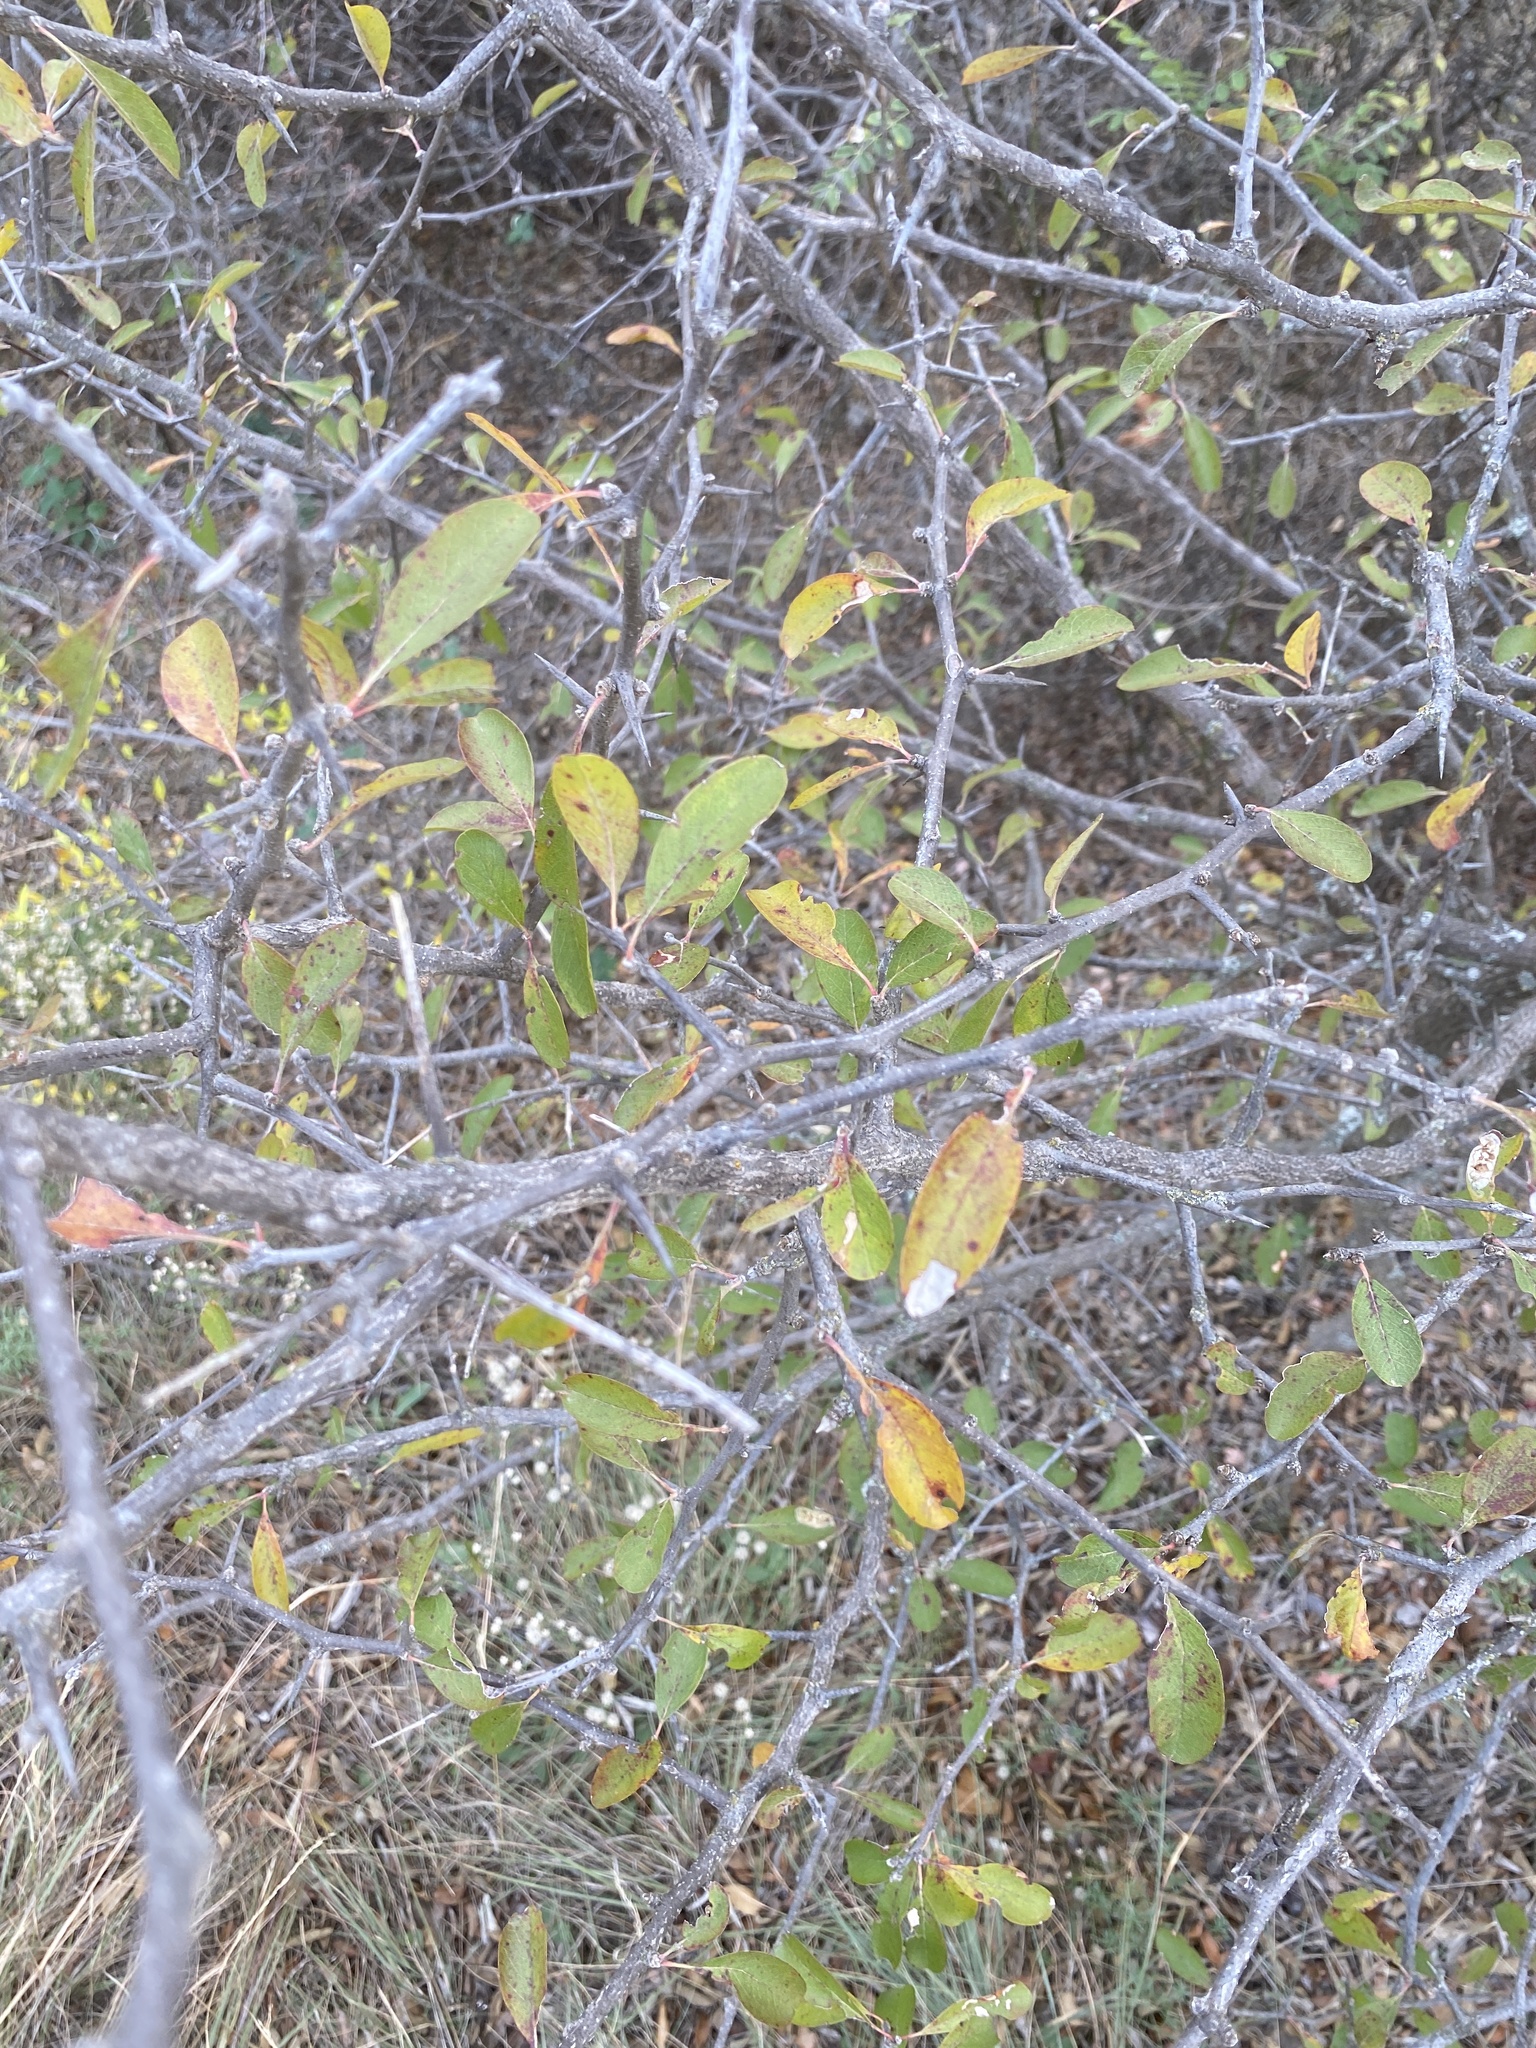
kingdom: Plantae
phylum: Tracheophyta
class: Magnoliopsida
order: Ericales
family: Sapotaceae
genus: Sideroxylon
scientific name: Sideroxylon lanuginosum
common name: Chittamwood
